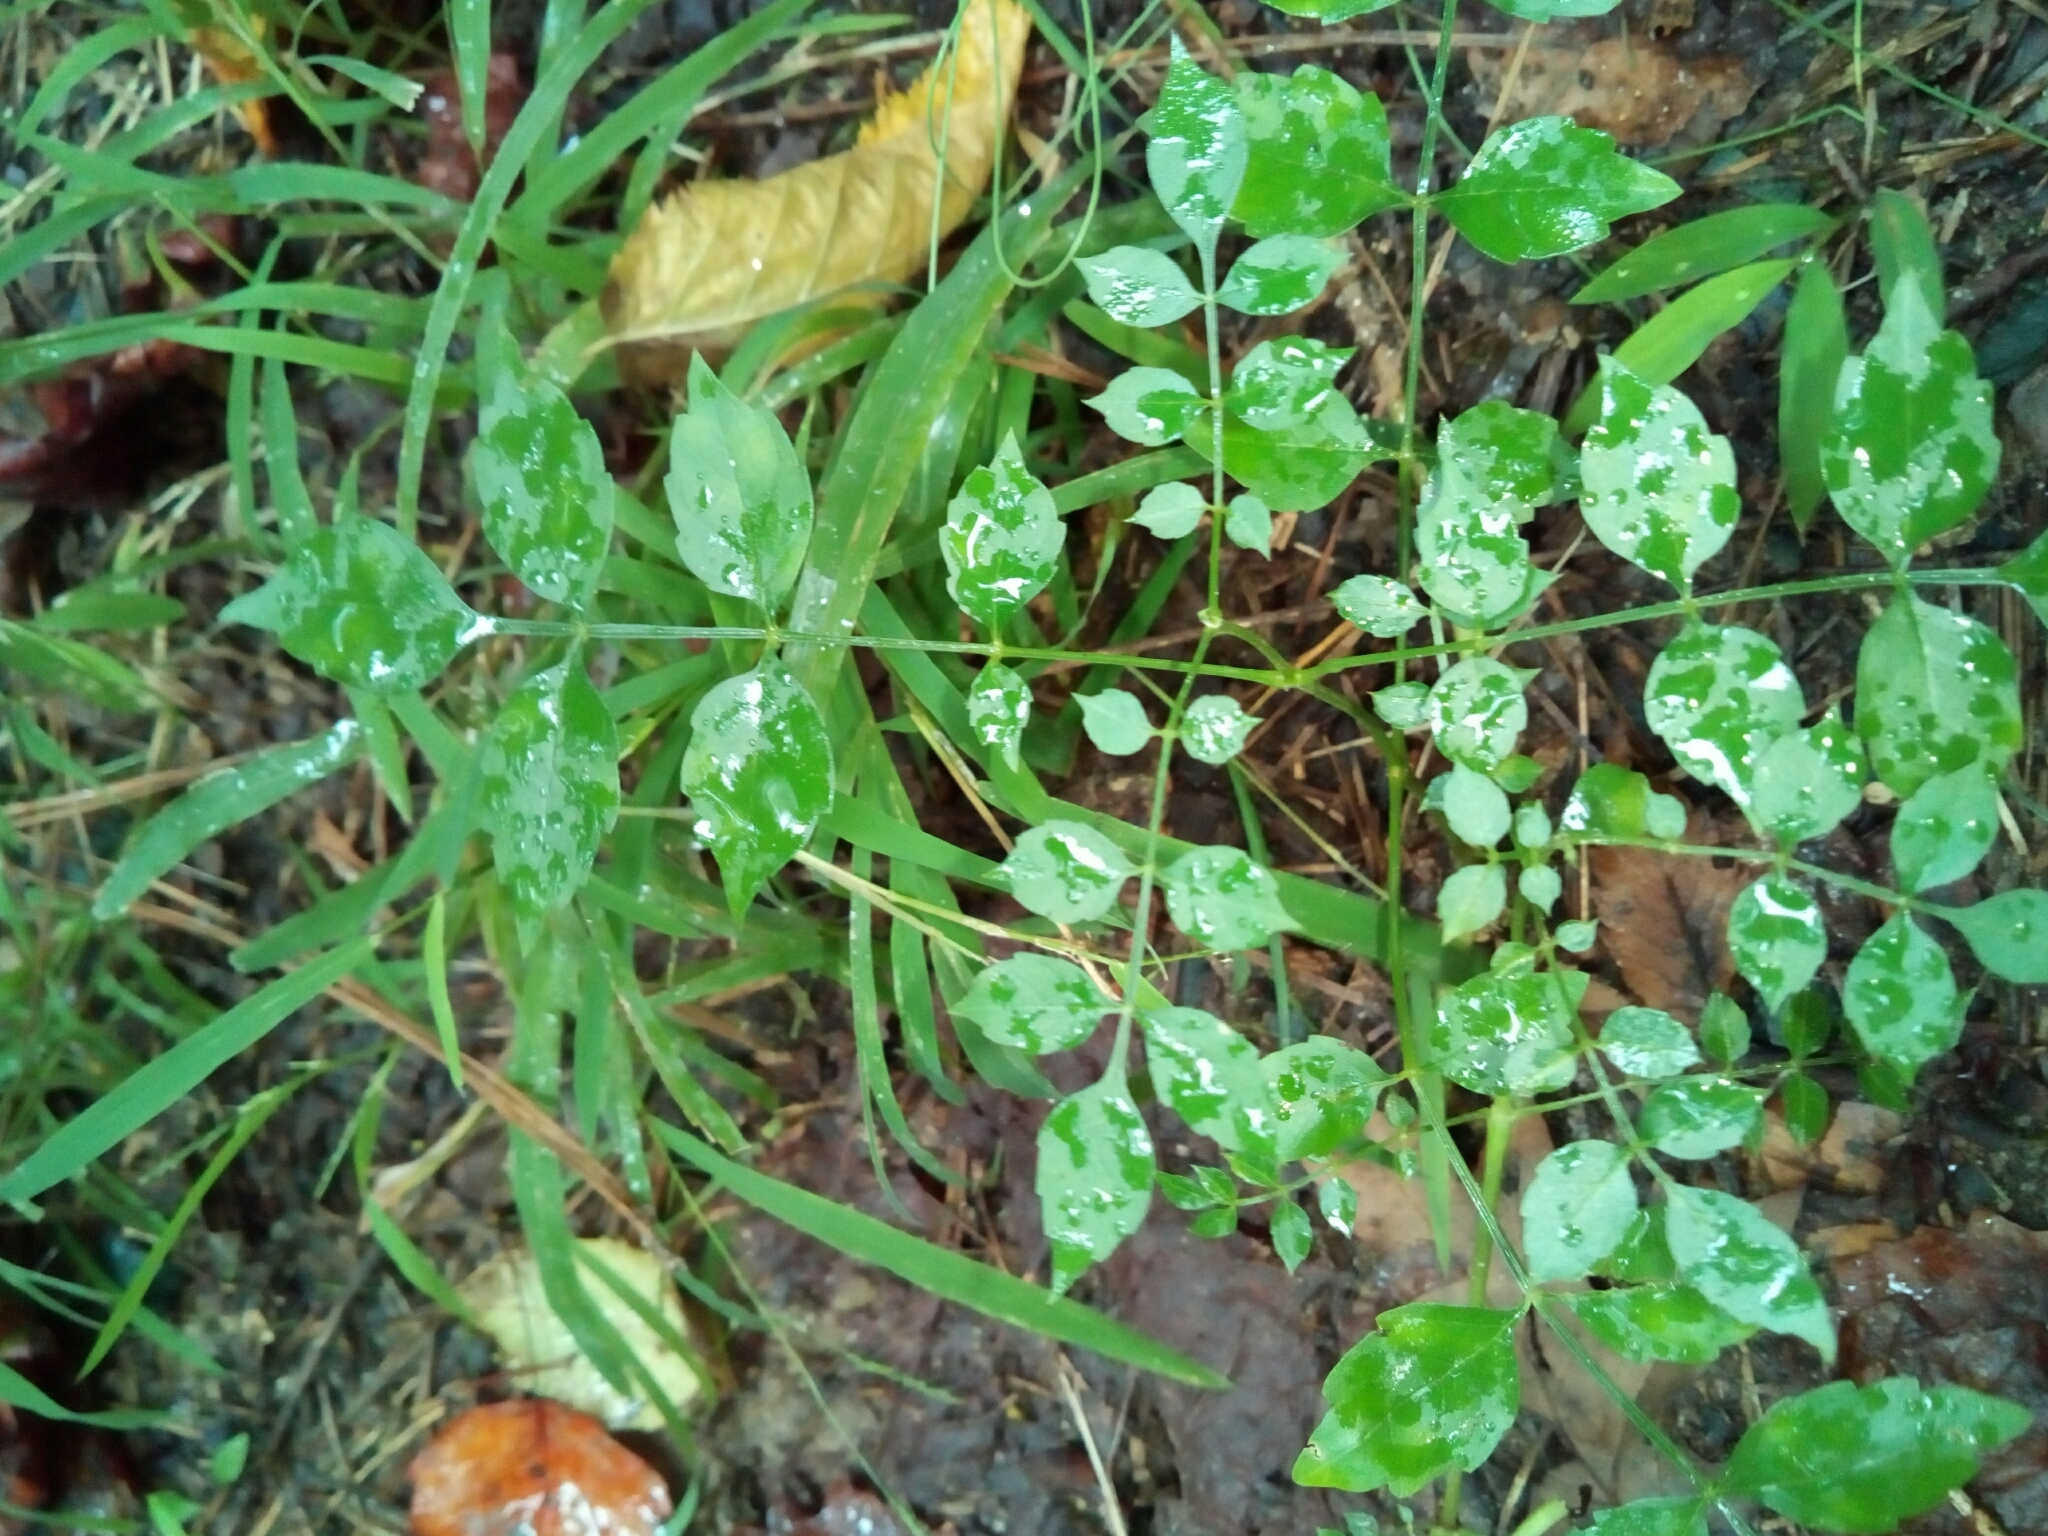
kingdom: Plantae
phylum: Tracheophyta
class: Magnoliopsida
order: Lamiales
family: Bignoniaceae
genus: Campsis
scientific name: Campsis radicans
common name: Trumpet-creeper
